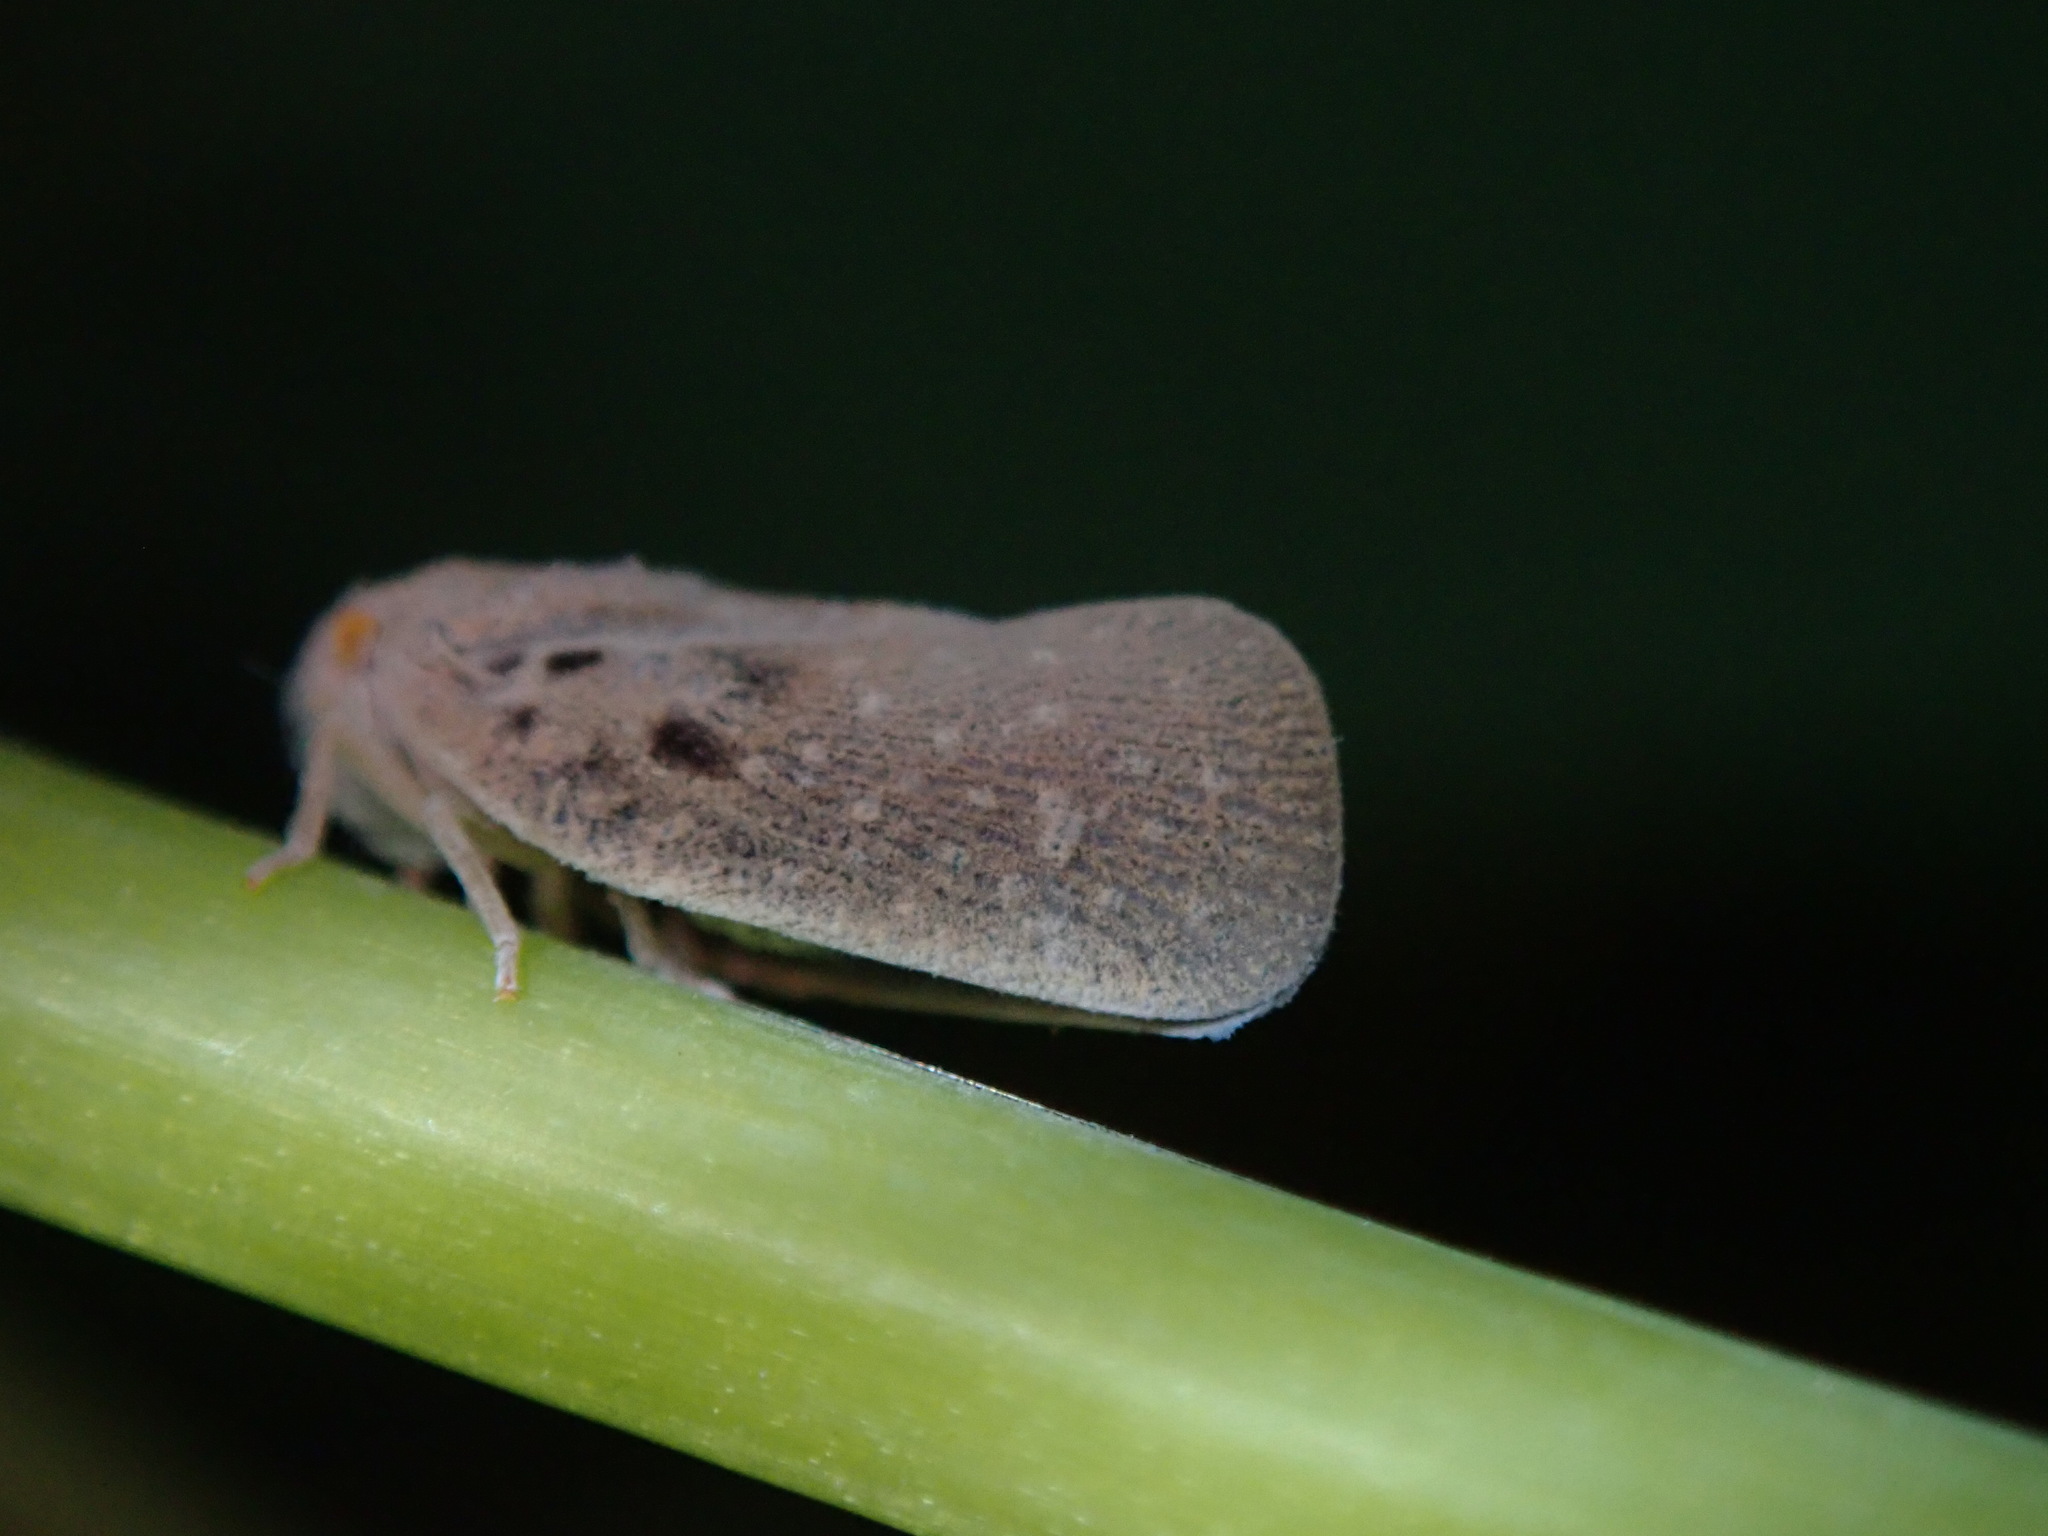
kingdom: Animalia
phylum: Arthropoda
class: Insecta
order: Hemiptera
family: Flatidae
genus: Metcalfa
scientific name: Metcalfa pruinosa
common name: Citrus flatid planthopper
